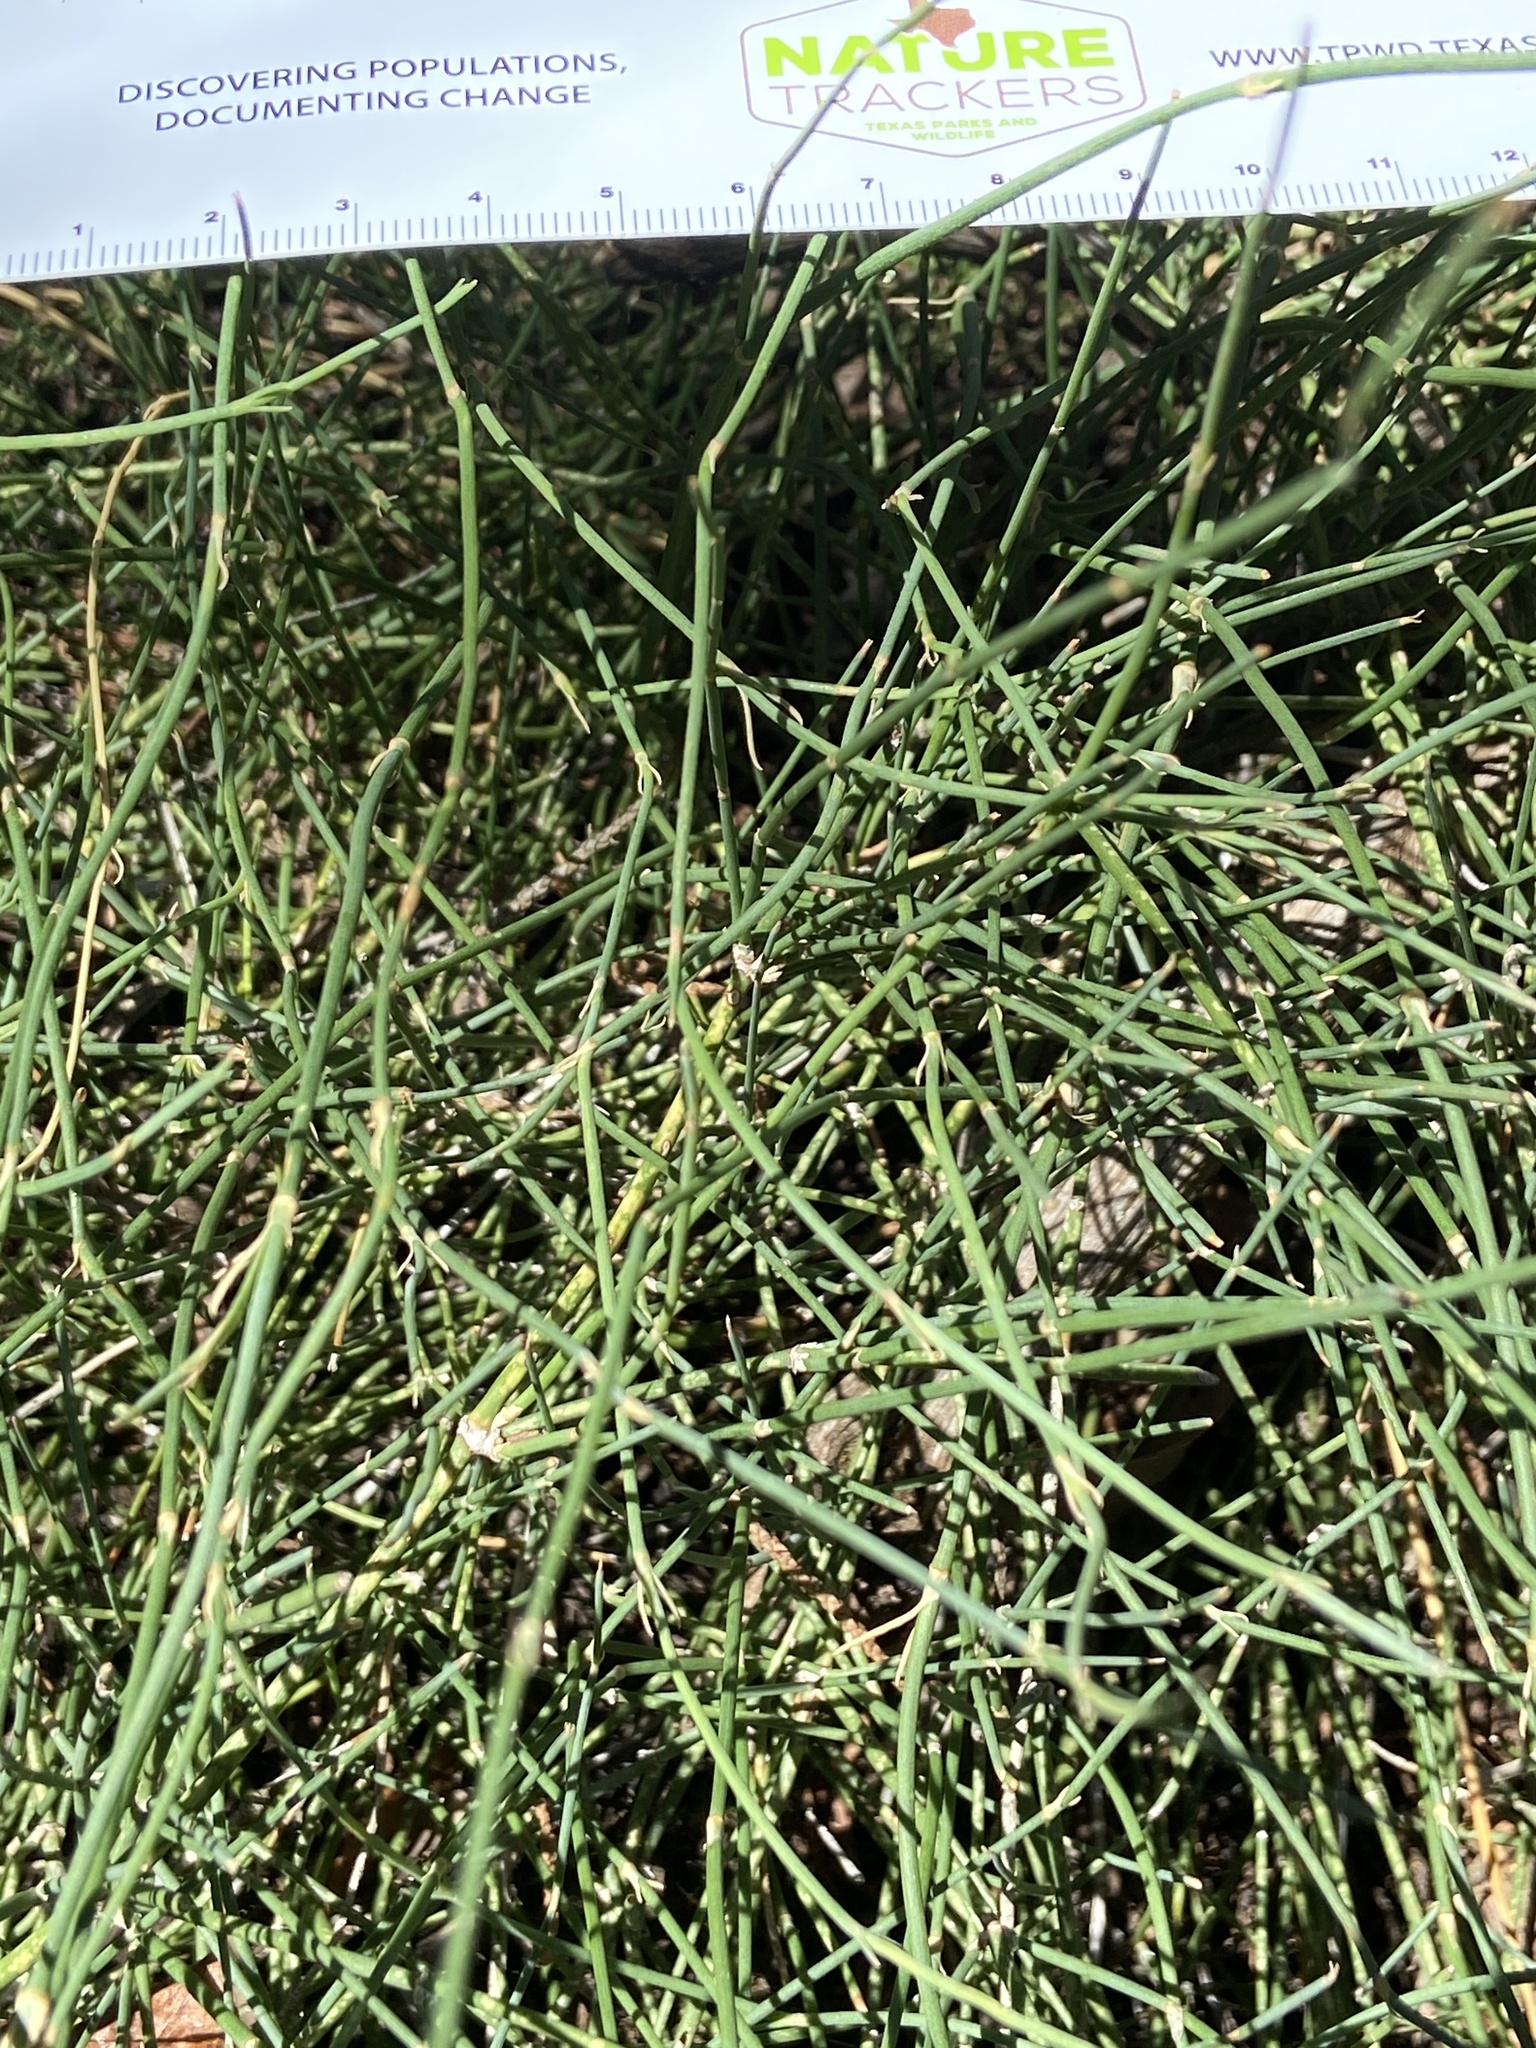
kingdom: Plantae
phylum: Tracheophyta
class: Gnetopsida
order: Ephedrales
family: Ephedraceae
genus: Ephedra
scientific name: Ephedra antisyphilitica
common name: Clipweed
